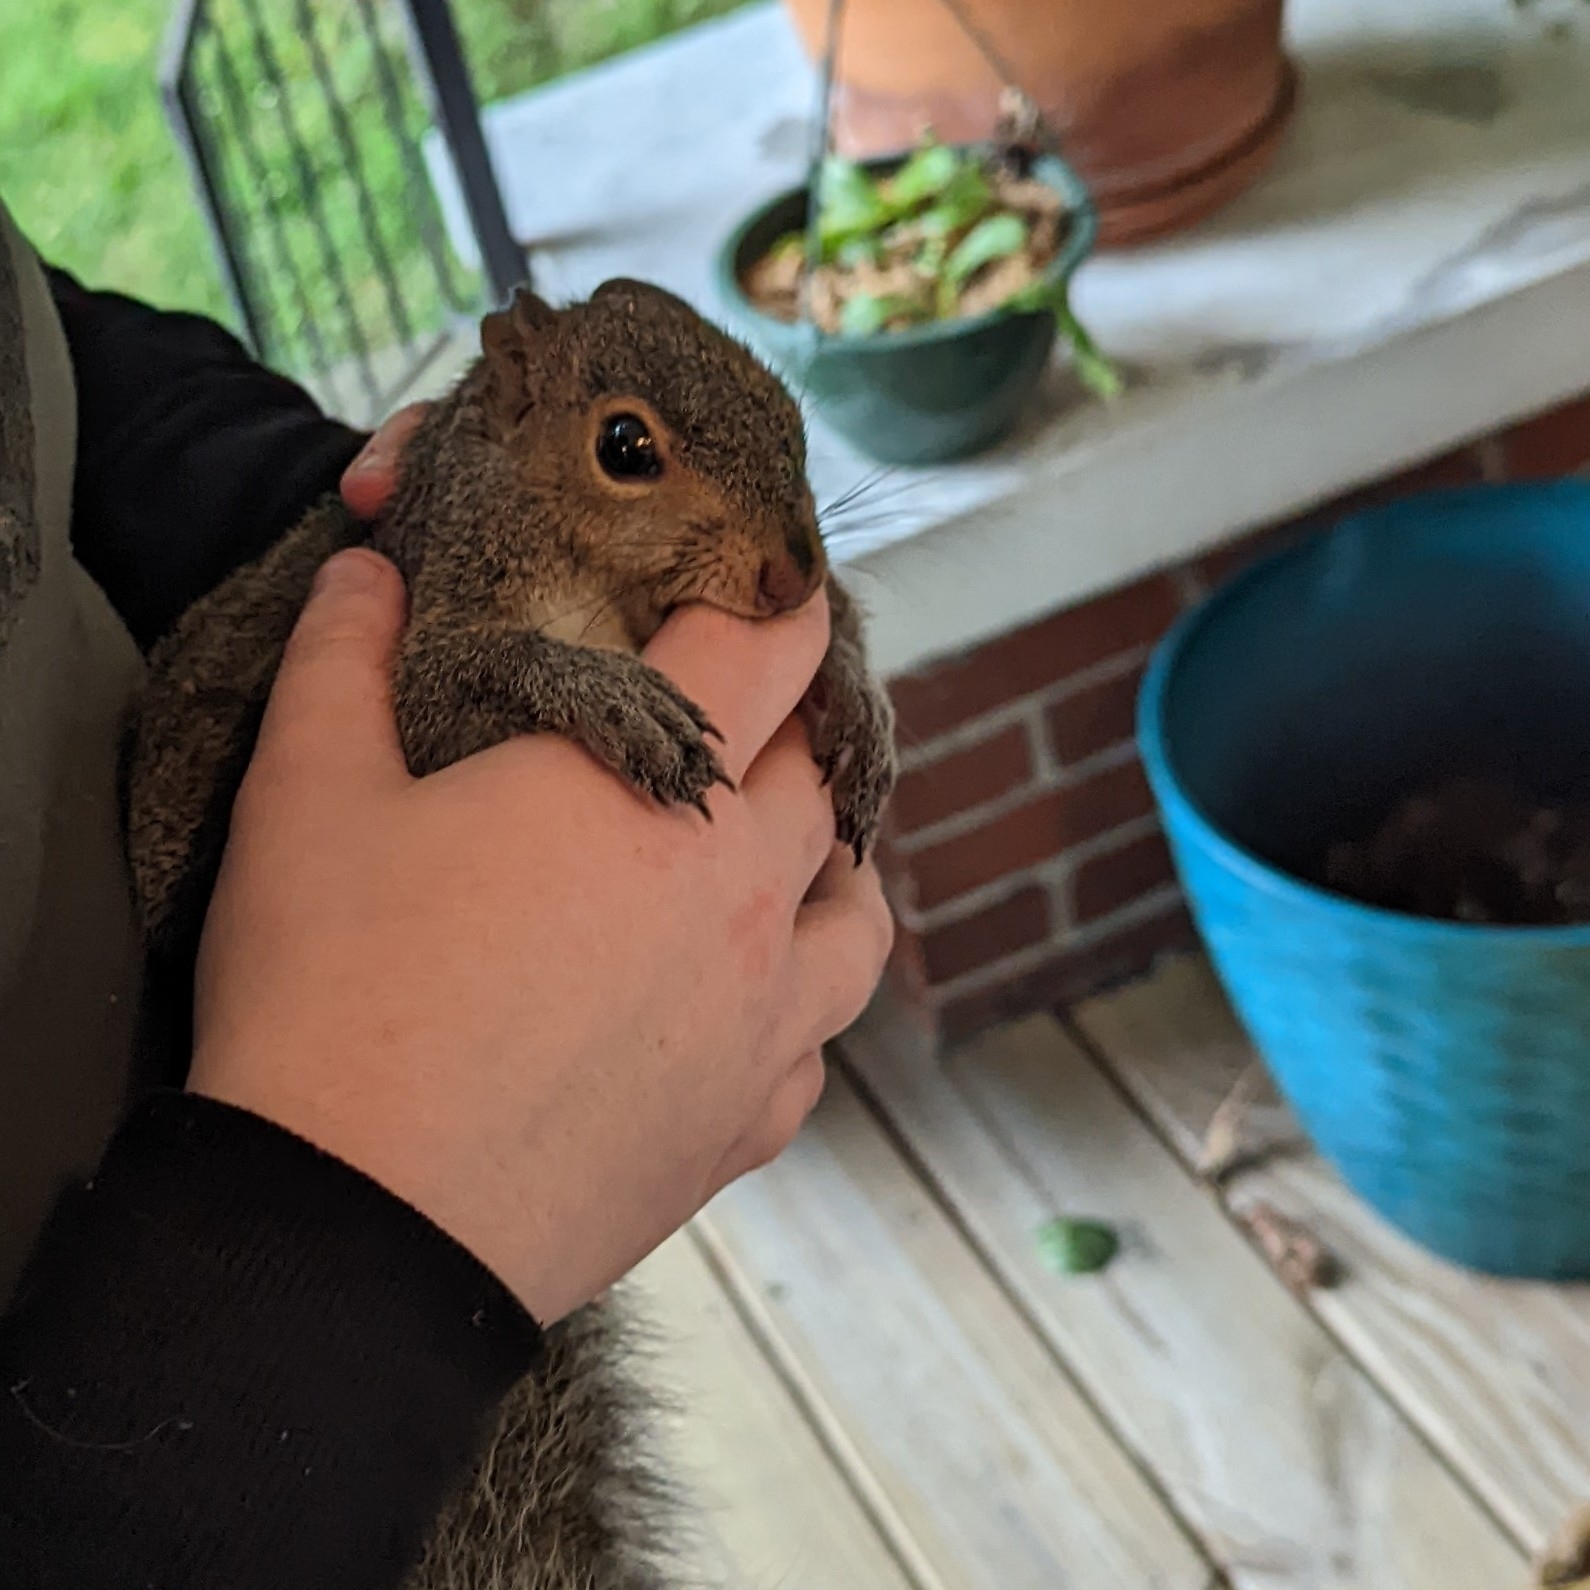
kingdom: Animalia
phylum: Chordata
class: Mammalia
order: Rodentia
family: Sciuridae
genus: Sciurus
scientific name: Sciurus carolinensis
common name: Eastern gray squirrel
